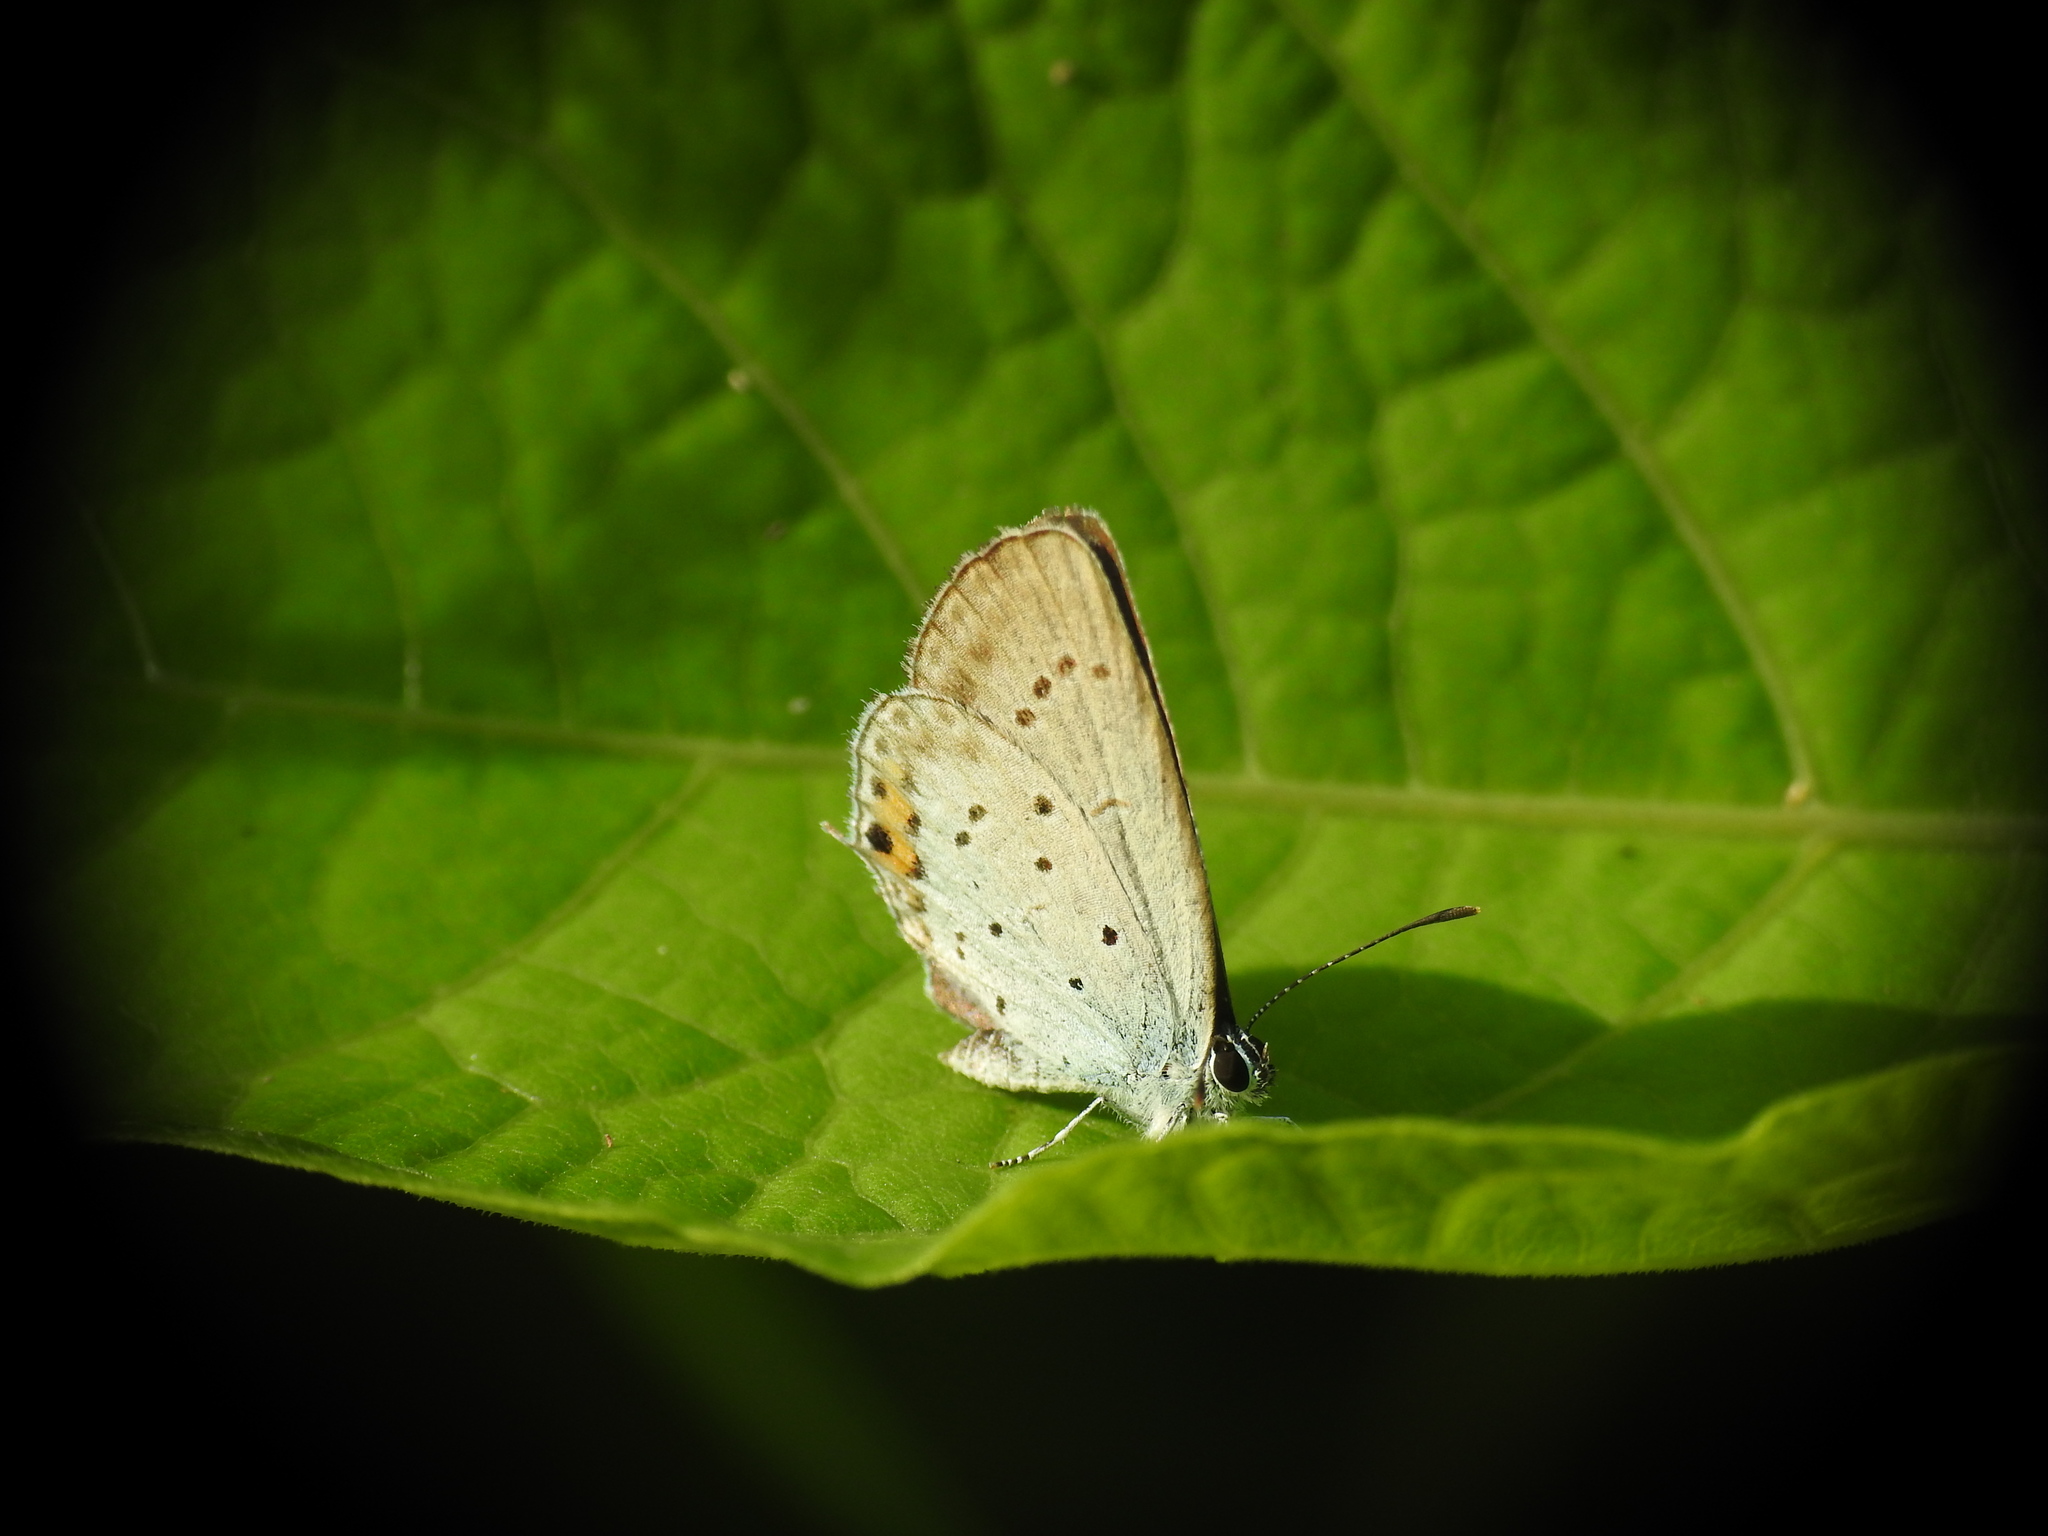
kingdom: Animalia
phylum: Arthropoda
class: Insecta
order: Lepidoptera
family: Lycaenidae
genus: Elkalyce
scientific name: Elkalyce argiades
